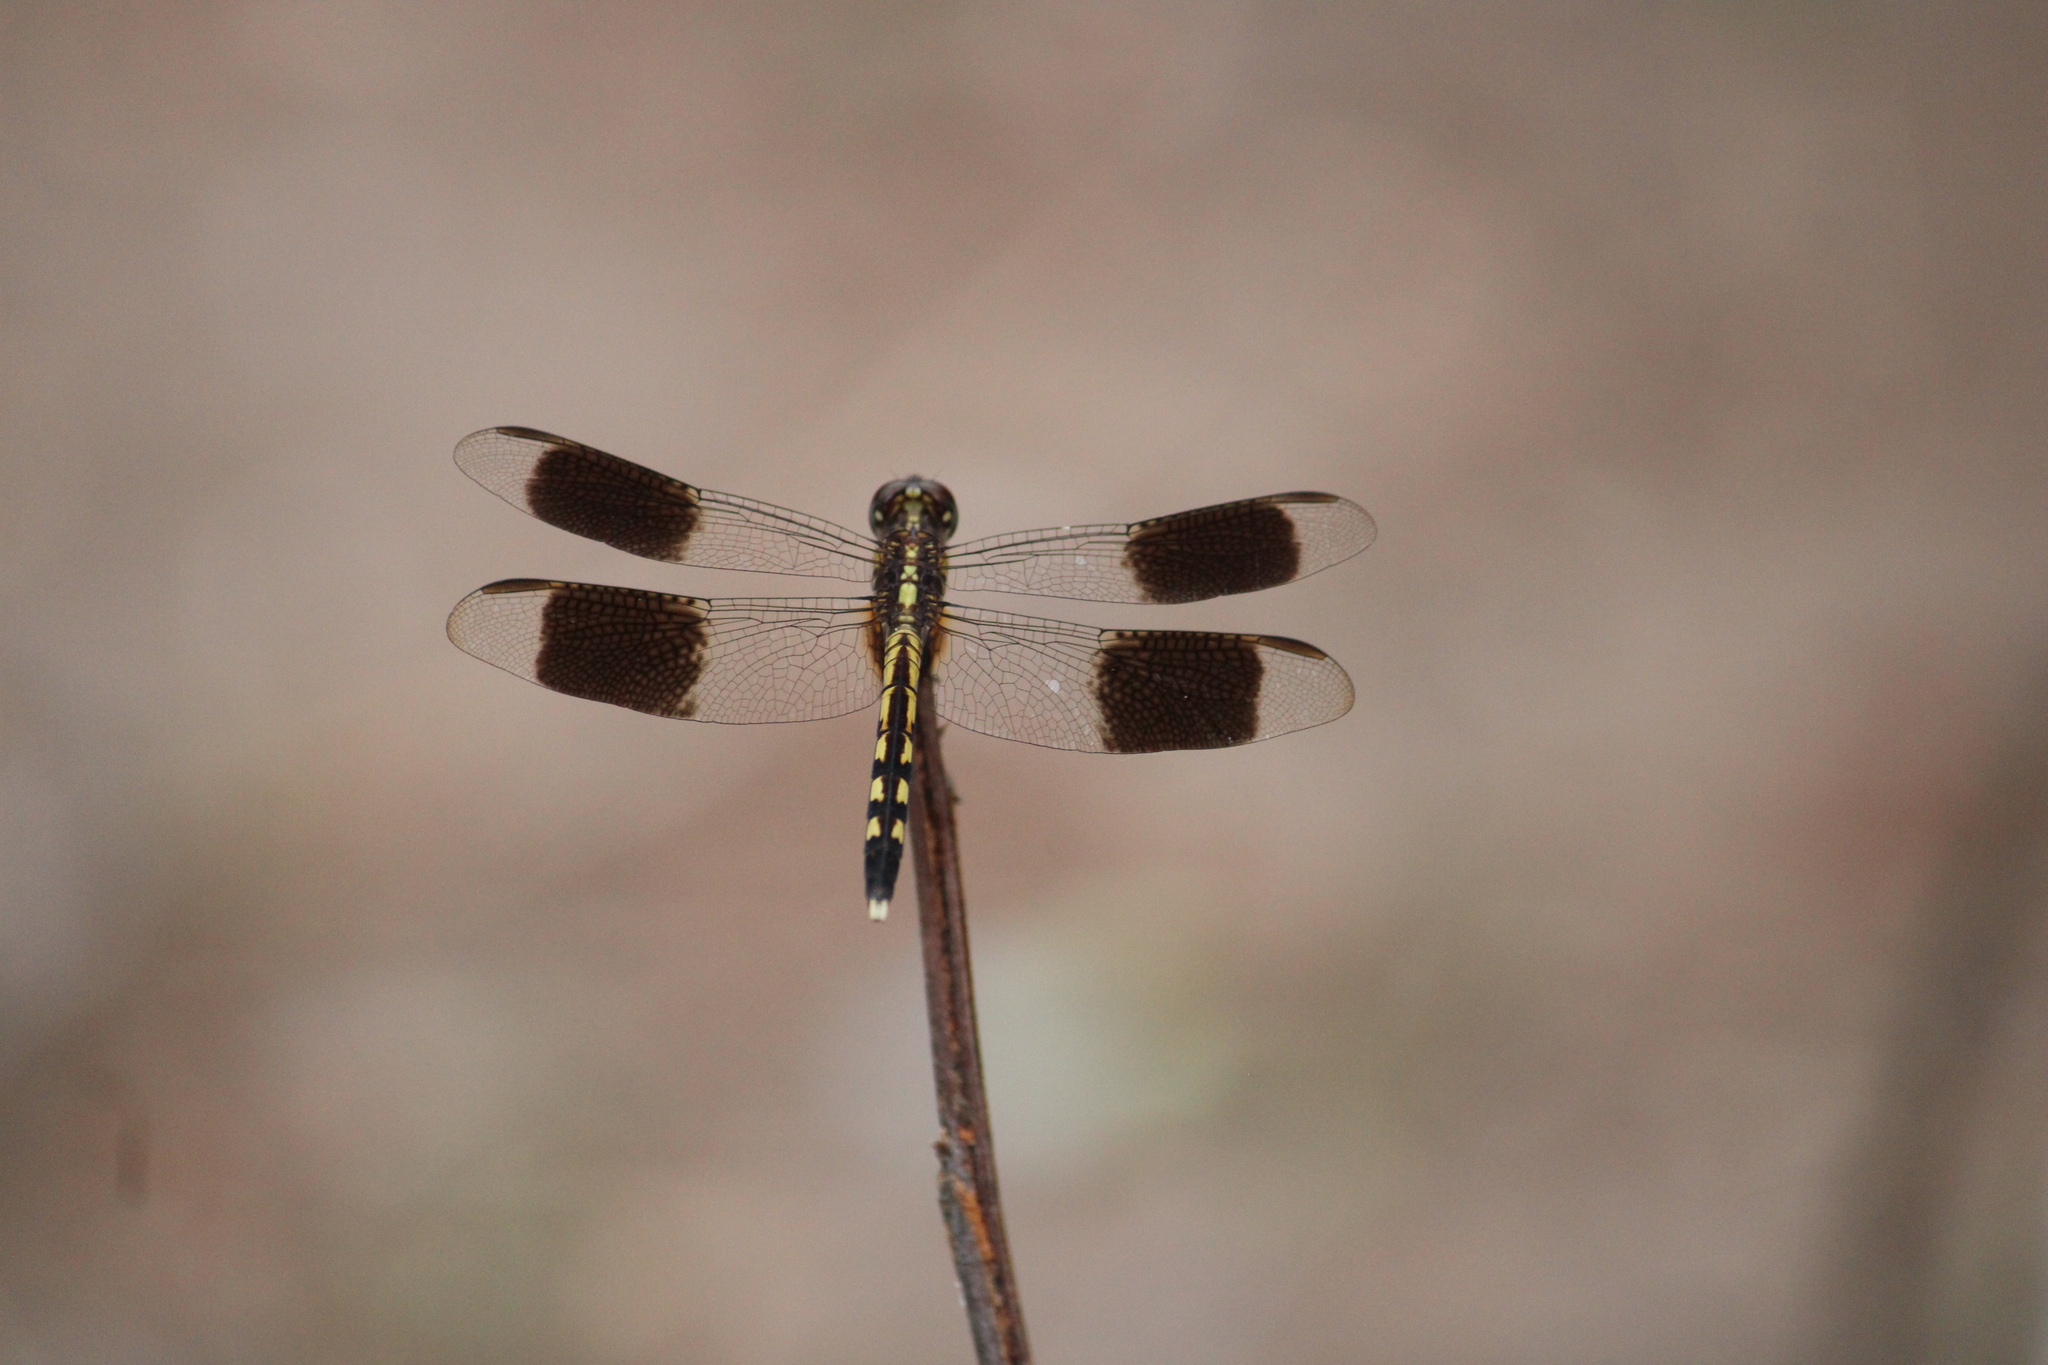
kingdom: Animalia
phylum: Arthropoda
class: Insecta
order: Odonata
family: Libellulidae
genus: Erythrodiplax
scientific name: Erythrodiplax umbrata
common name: Band-winged dragonlet
